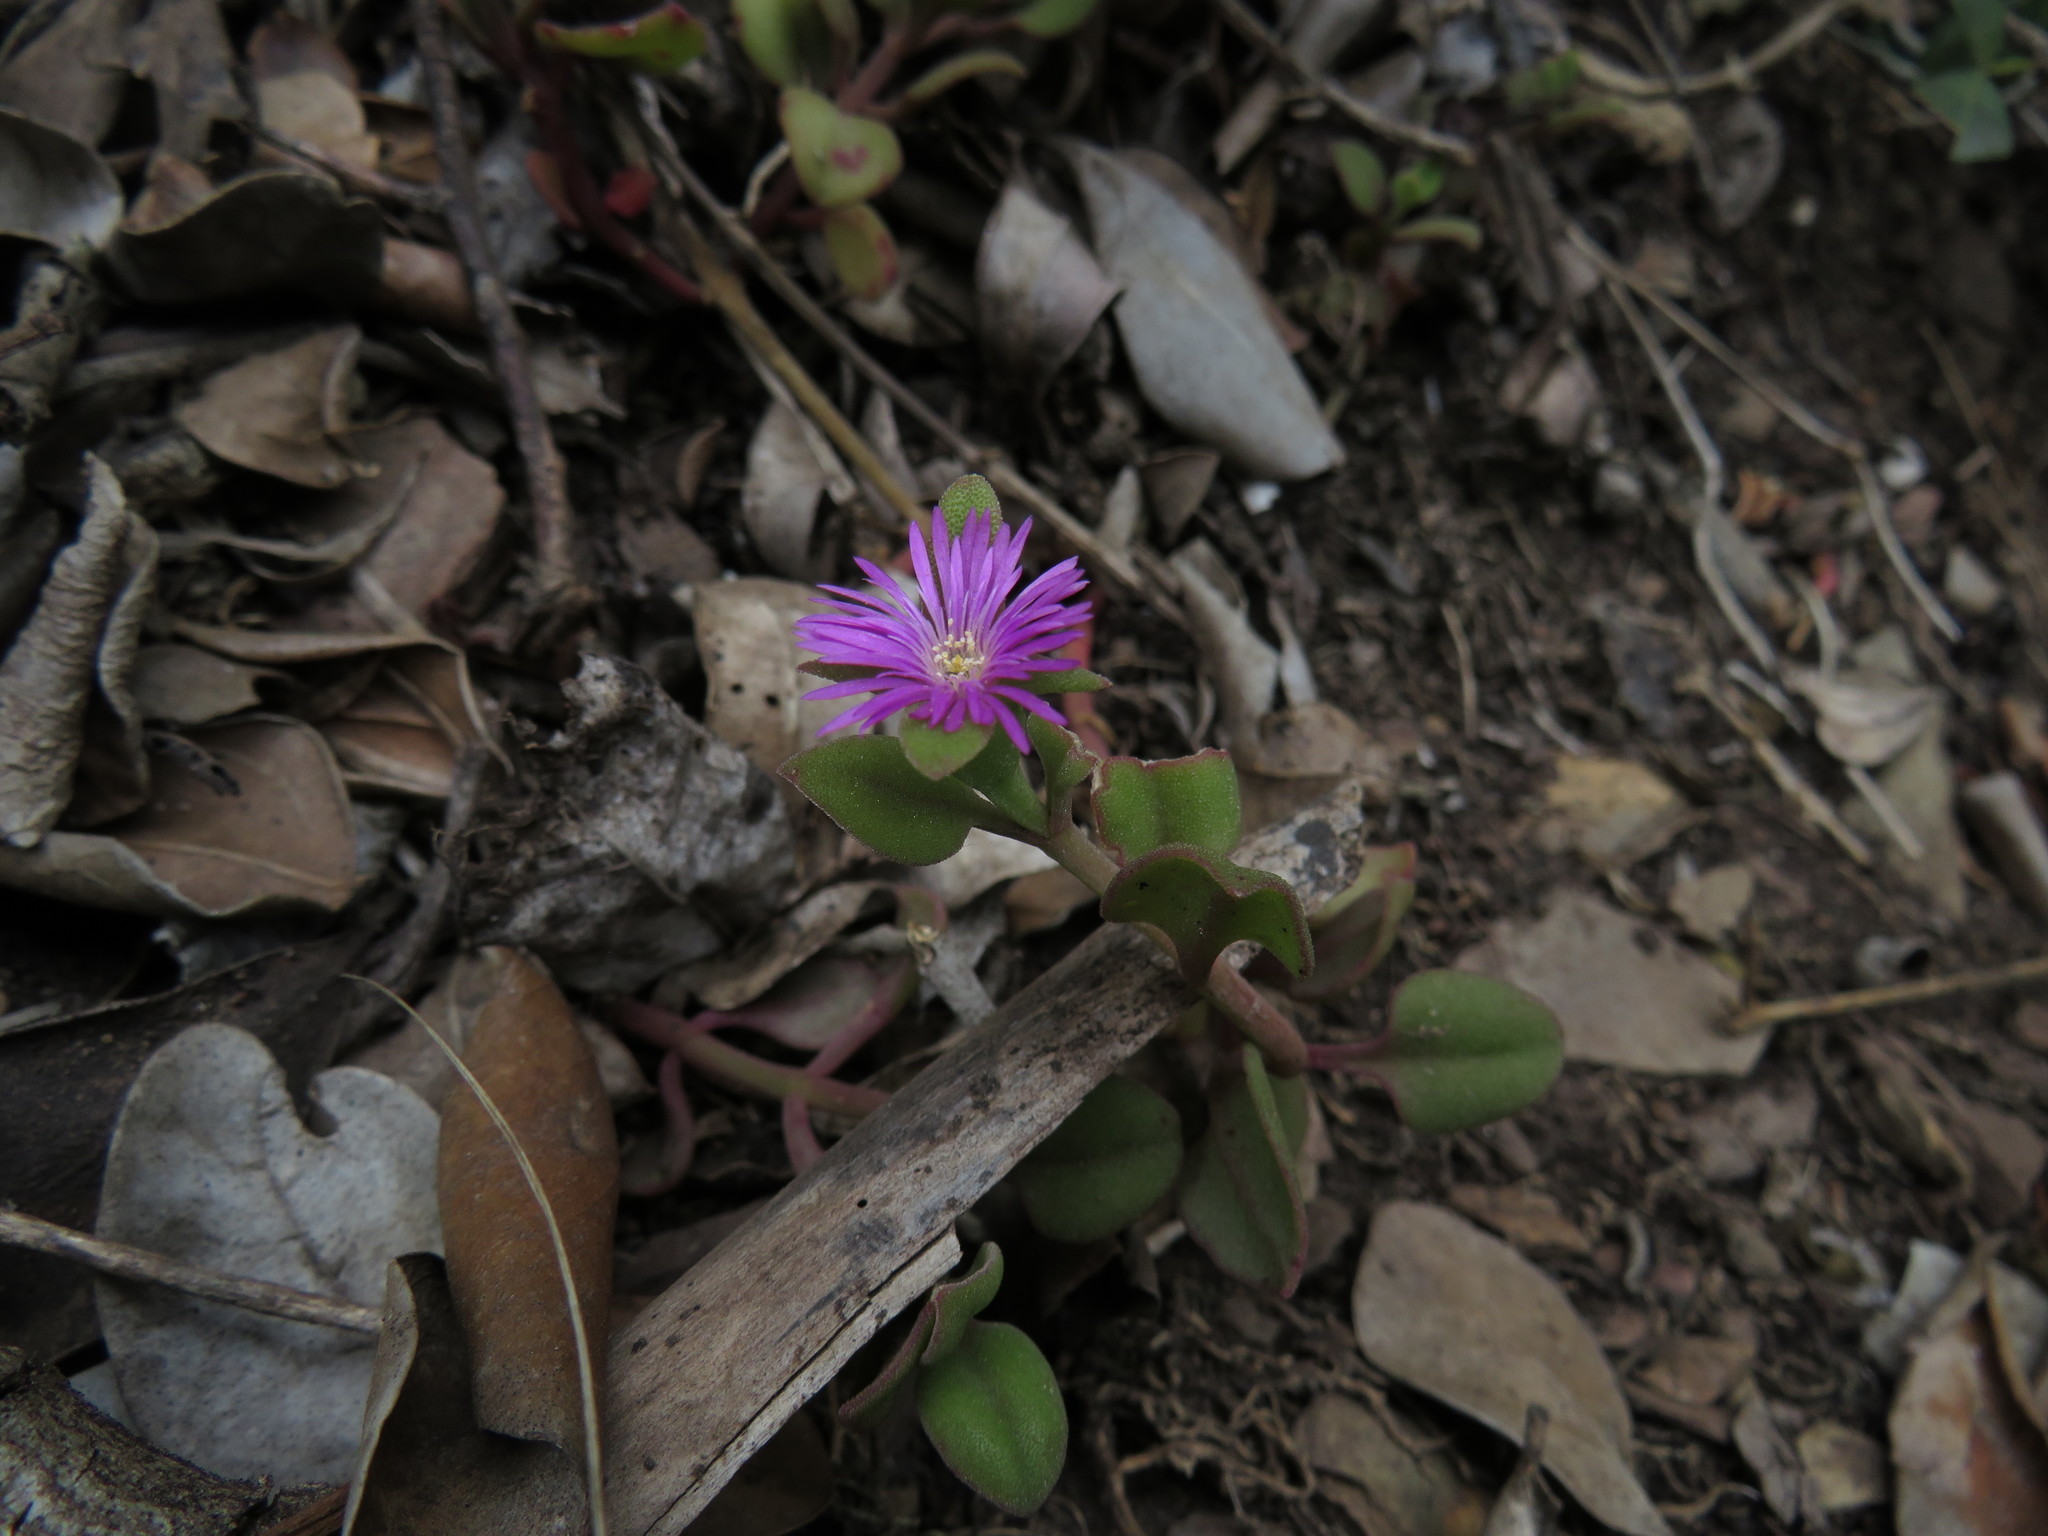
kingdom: Plantae
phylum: Tracheophyta
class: Magnoliopsida
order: Caryophyllales
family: Aizoaceae
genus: Mesembryanthemum
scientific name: Mesembryanthemum cordifolium
